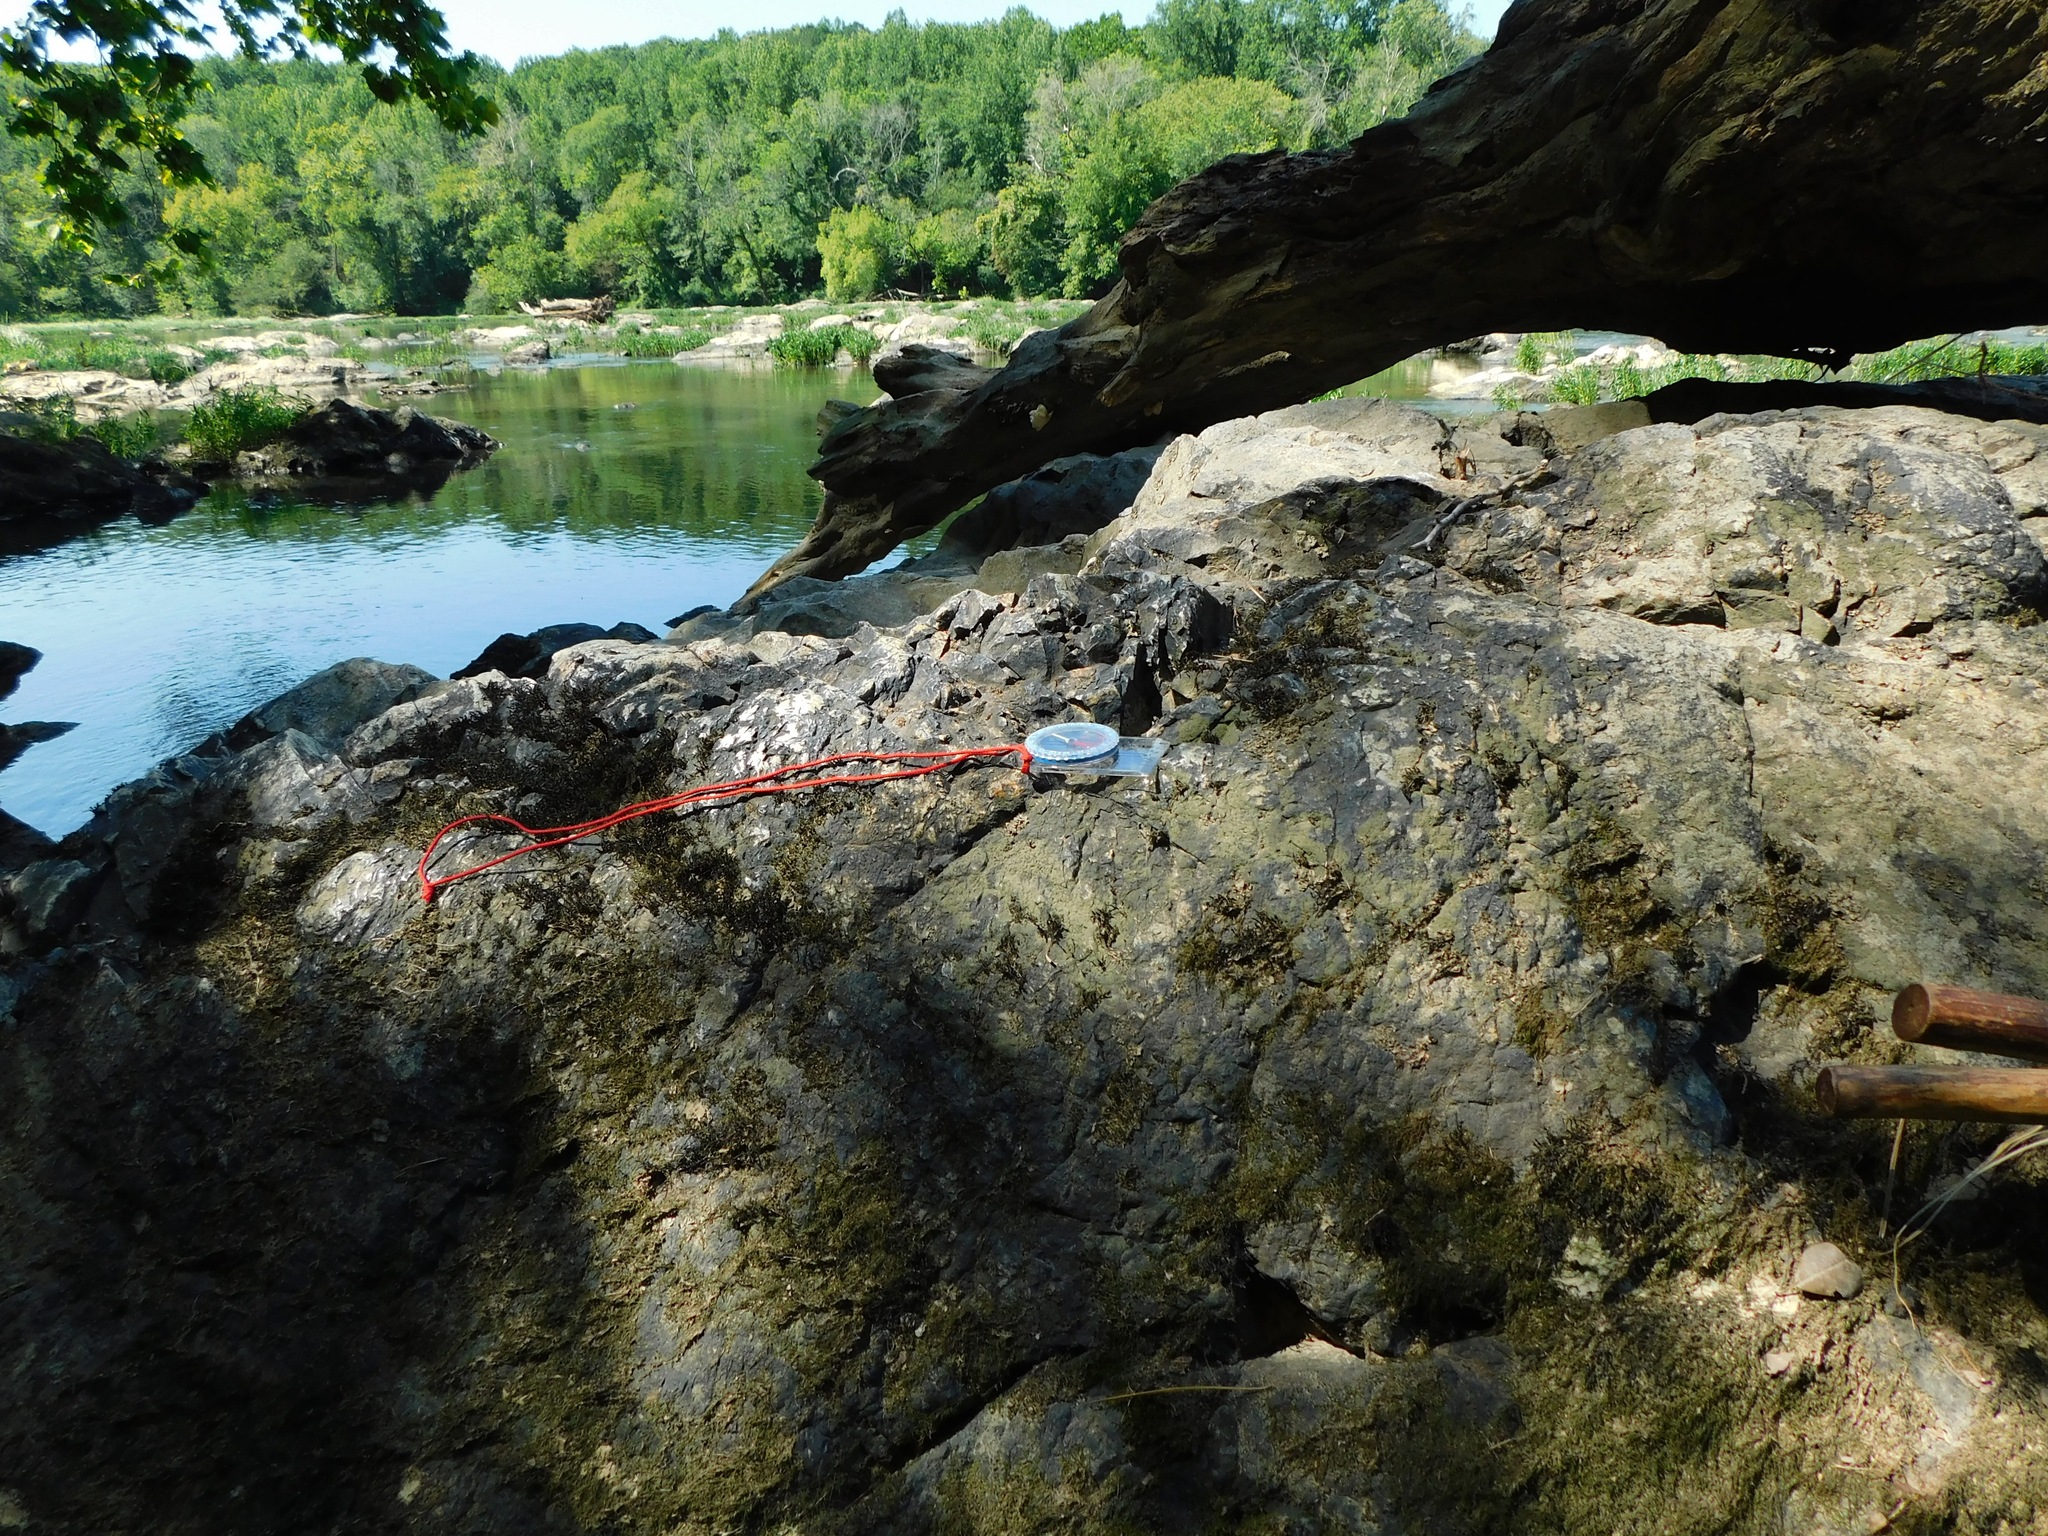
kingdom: Fungi
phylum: Ascomycota
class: Lecanoromycetes
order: Peltigerales
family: Placynthiaceae
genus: Placynthium
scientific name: Placynthium nigrum
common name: Blackthread lichen
